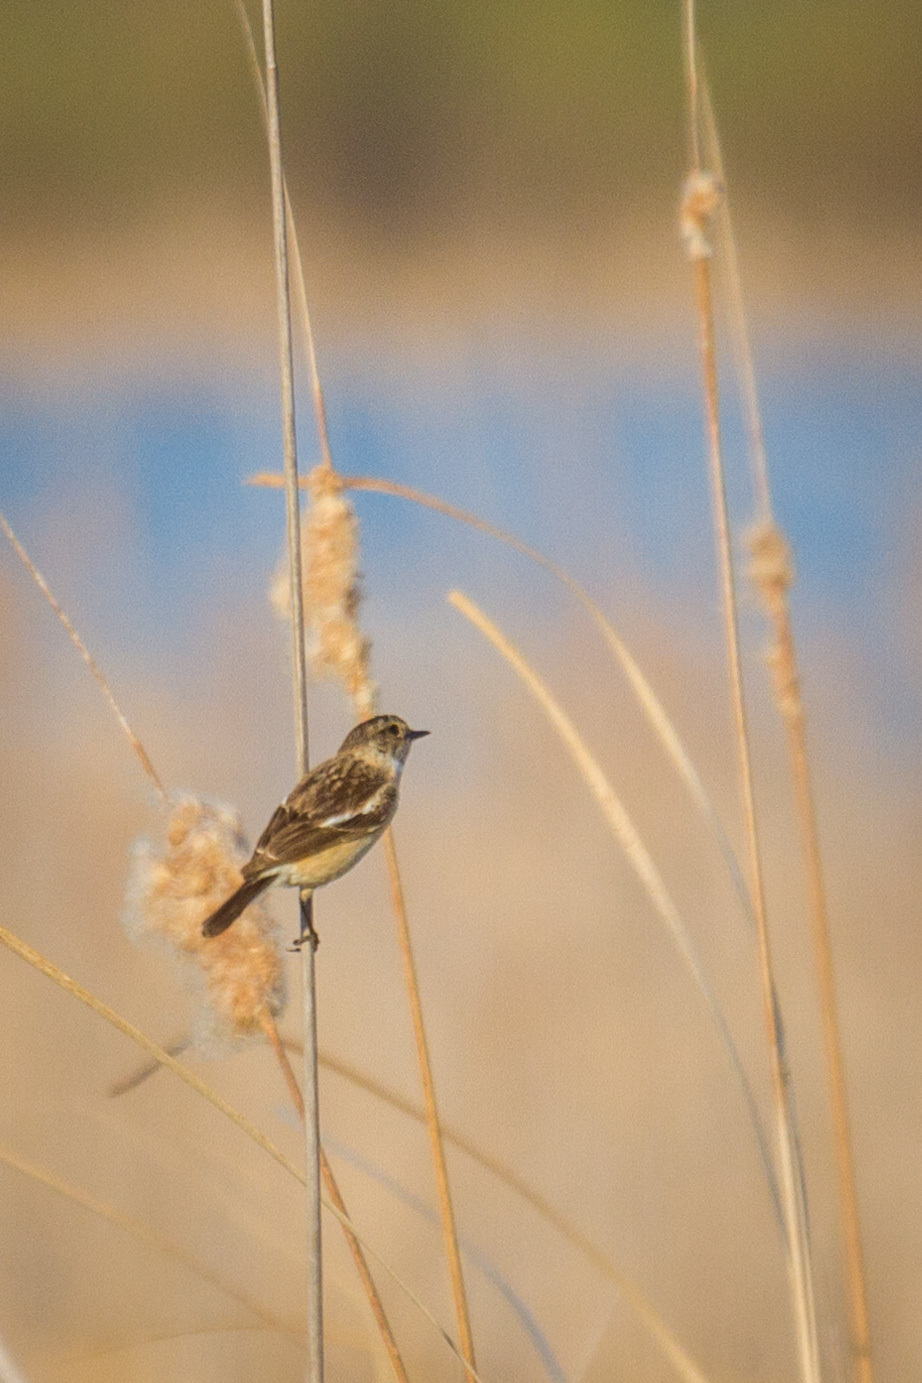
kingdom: Animalia
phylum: Chordata
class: Aves
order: Passeriformes
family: Muscicapidae
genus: Saxicola
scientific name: Saxicola maurus
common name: Siberian stonechat
